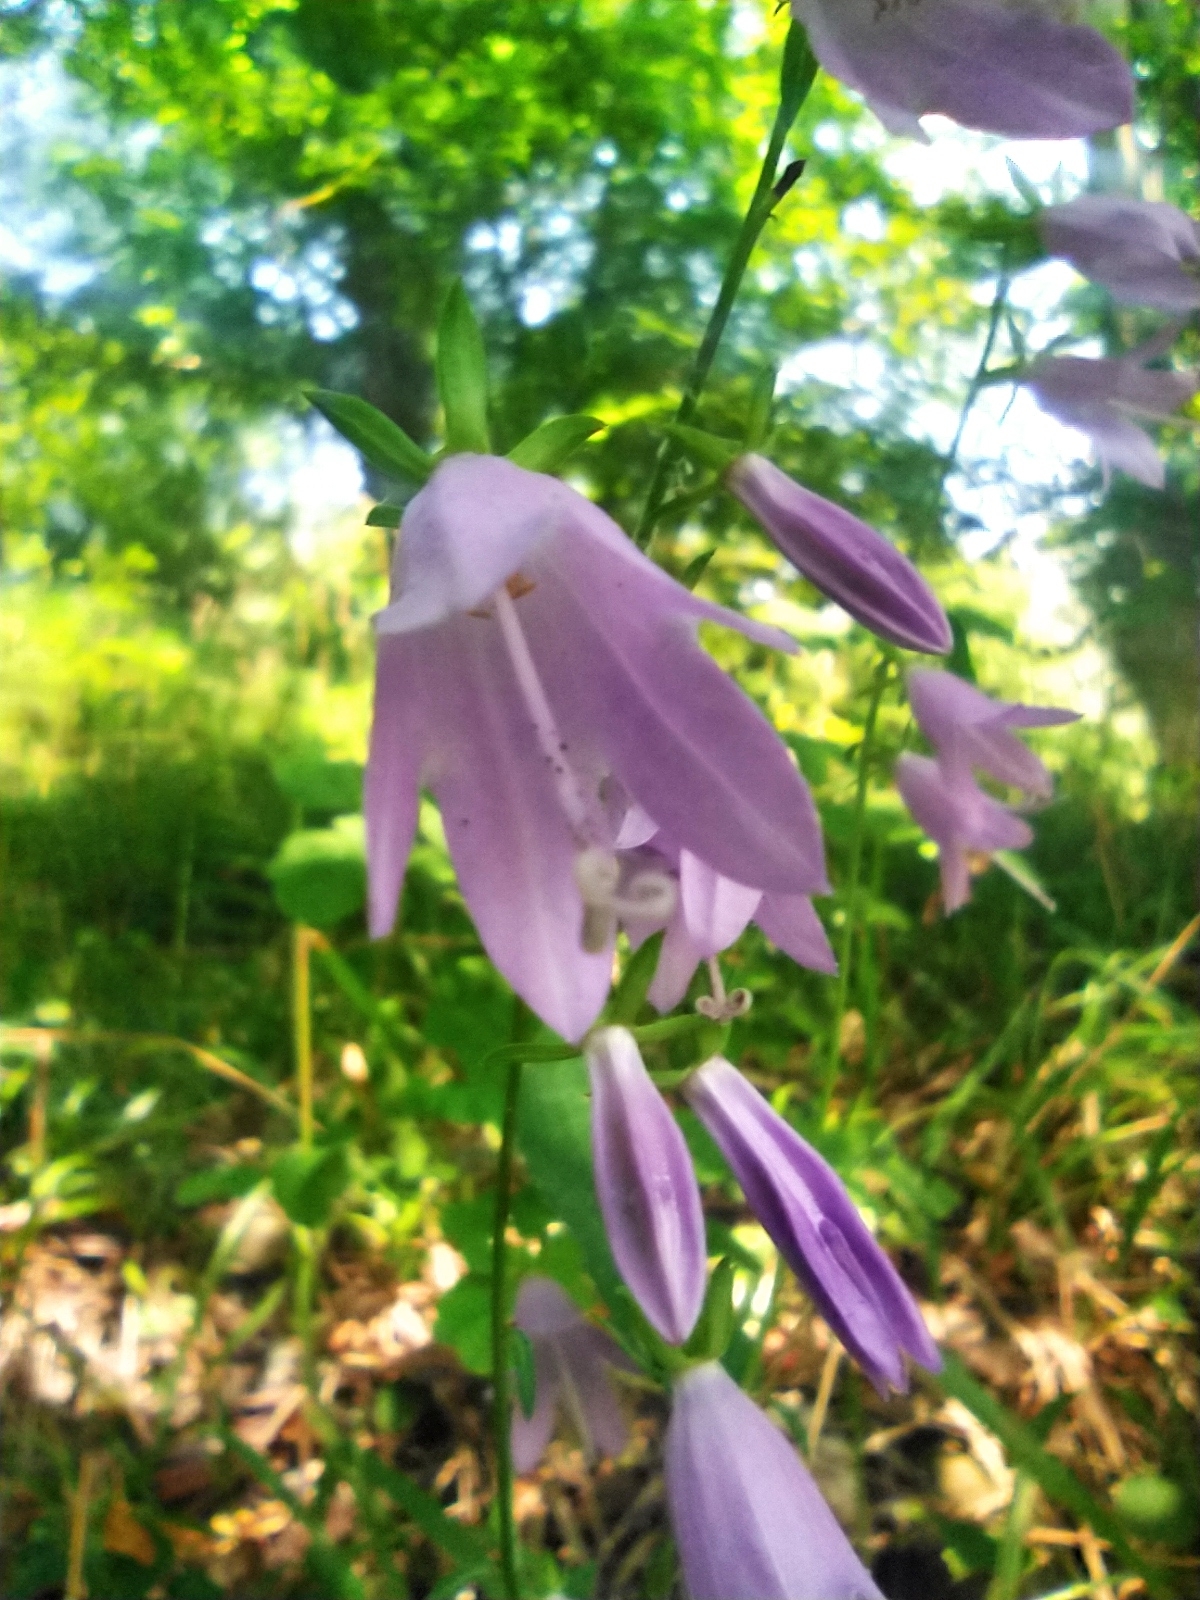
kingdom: Plantae
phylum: Tracheophyta
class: Magnoliopsida
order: Asterales
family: Campanulaceae
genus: Campanula
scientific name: Campanula rapunculoides
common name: Creeping bellflower
